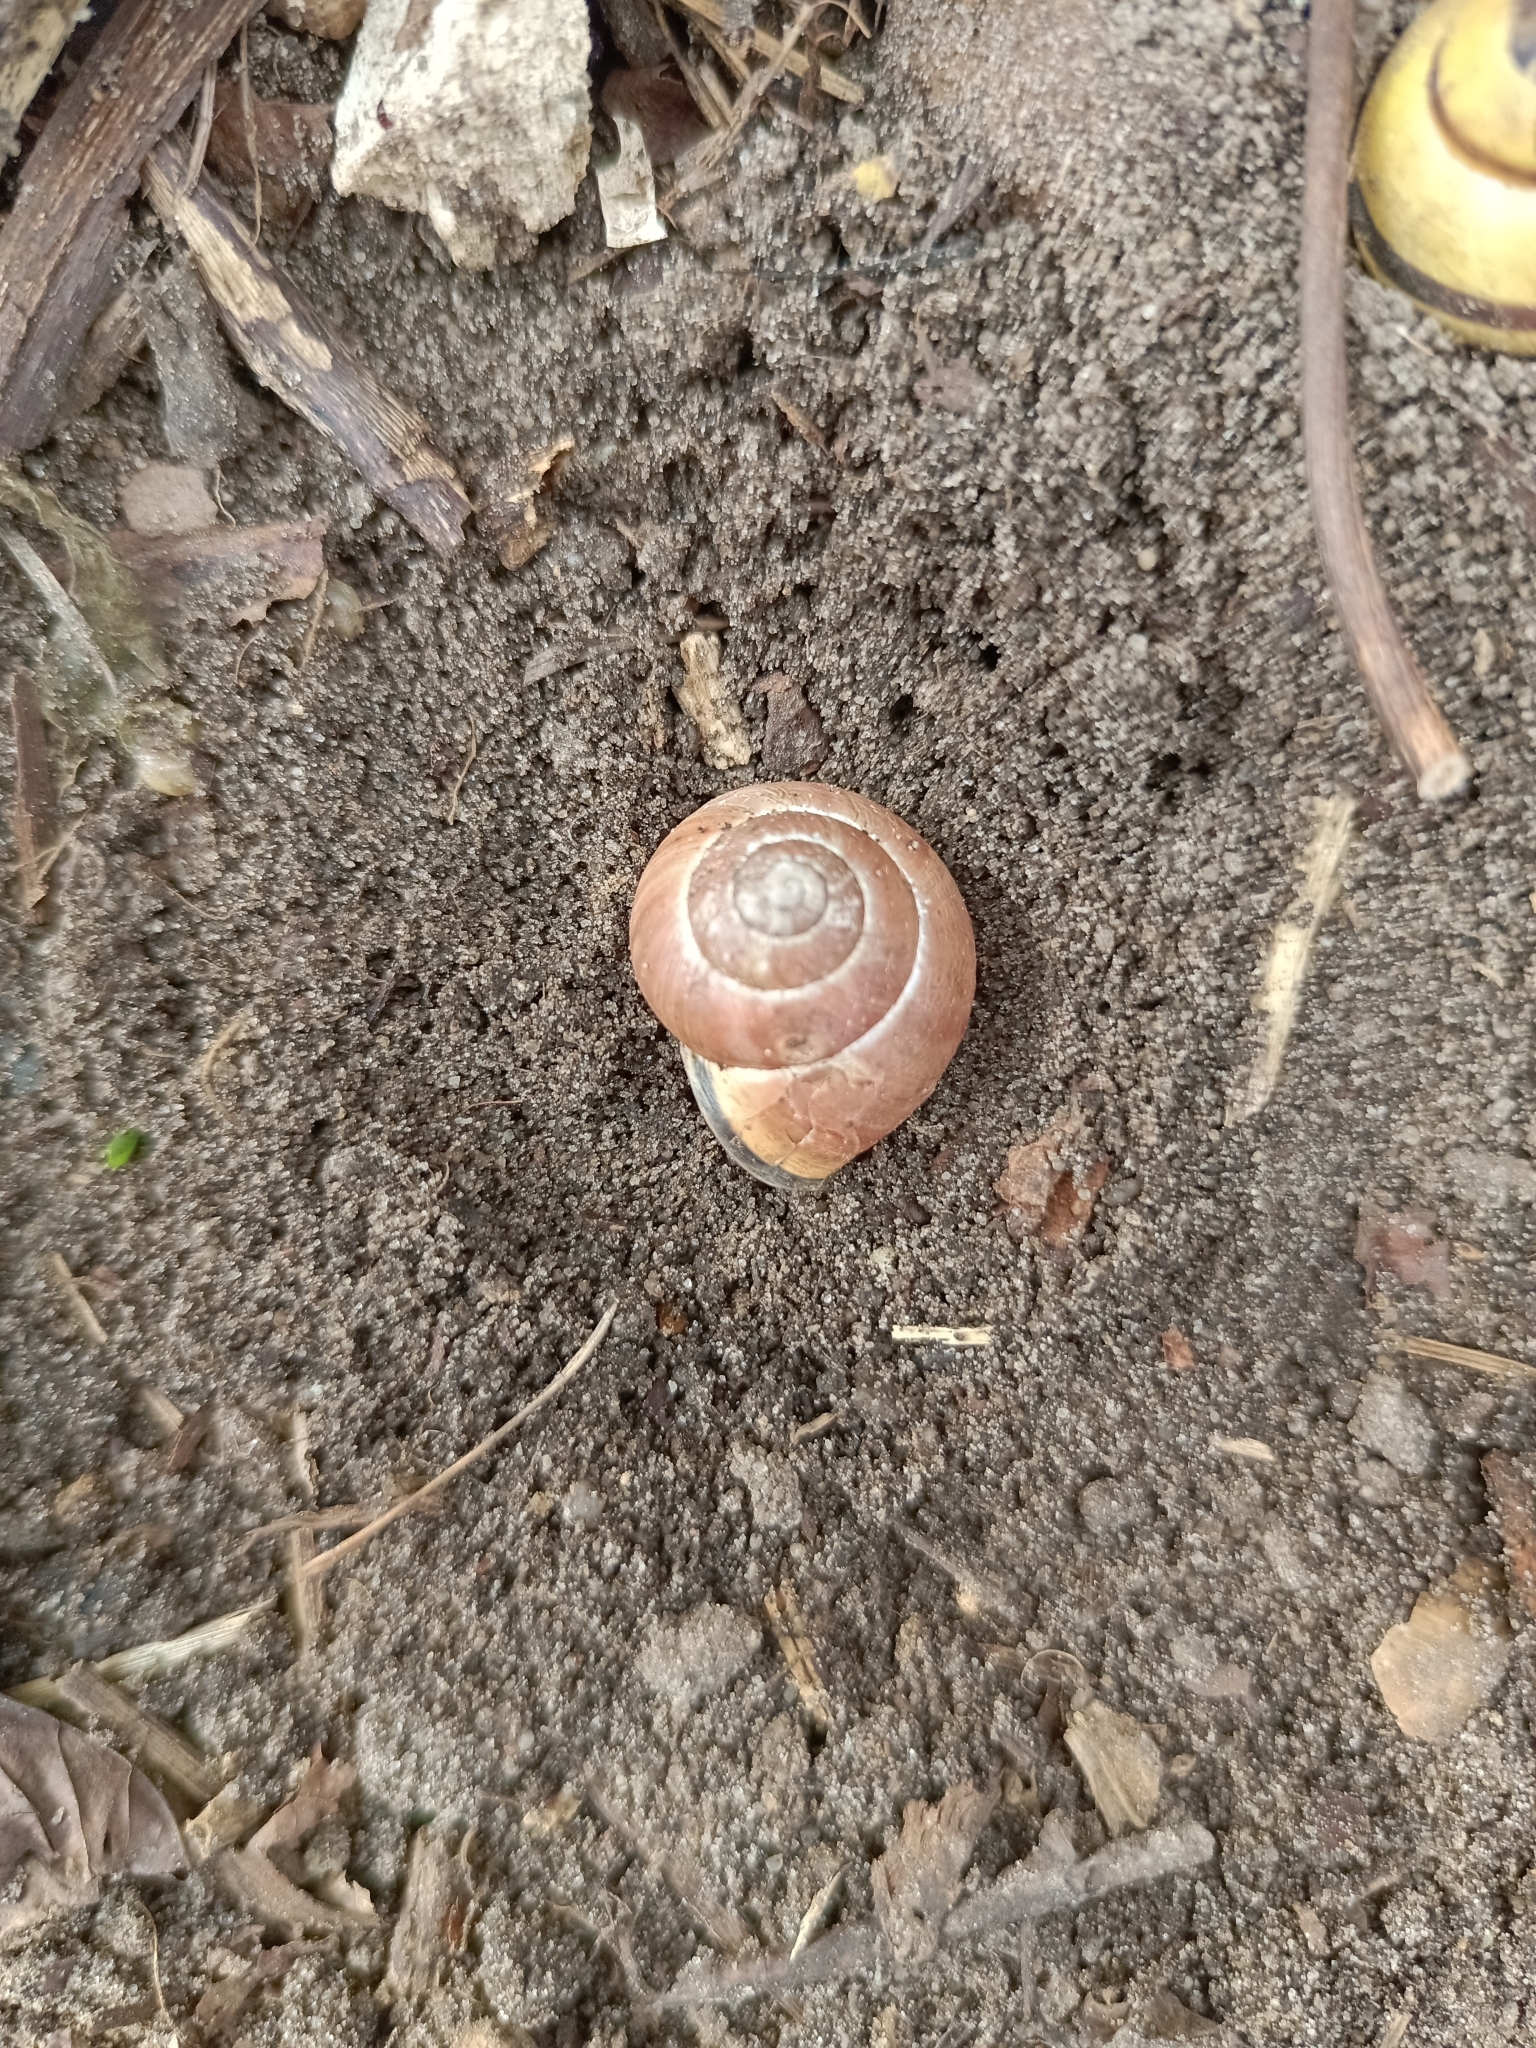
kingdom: Animalia
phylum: Mollusca
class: Gastropoda
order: Stylommatophora
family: Helicidae
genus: Cepaea
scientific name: Cepaea nemoralis
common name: Grovesnail
